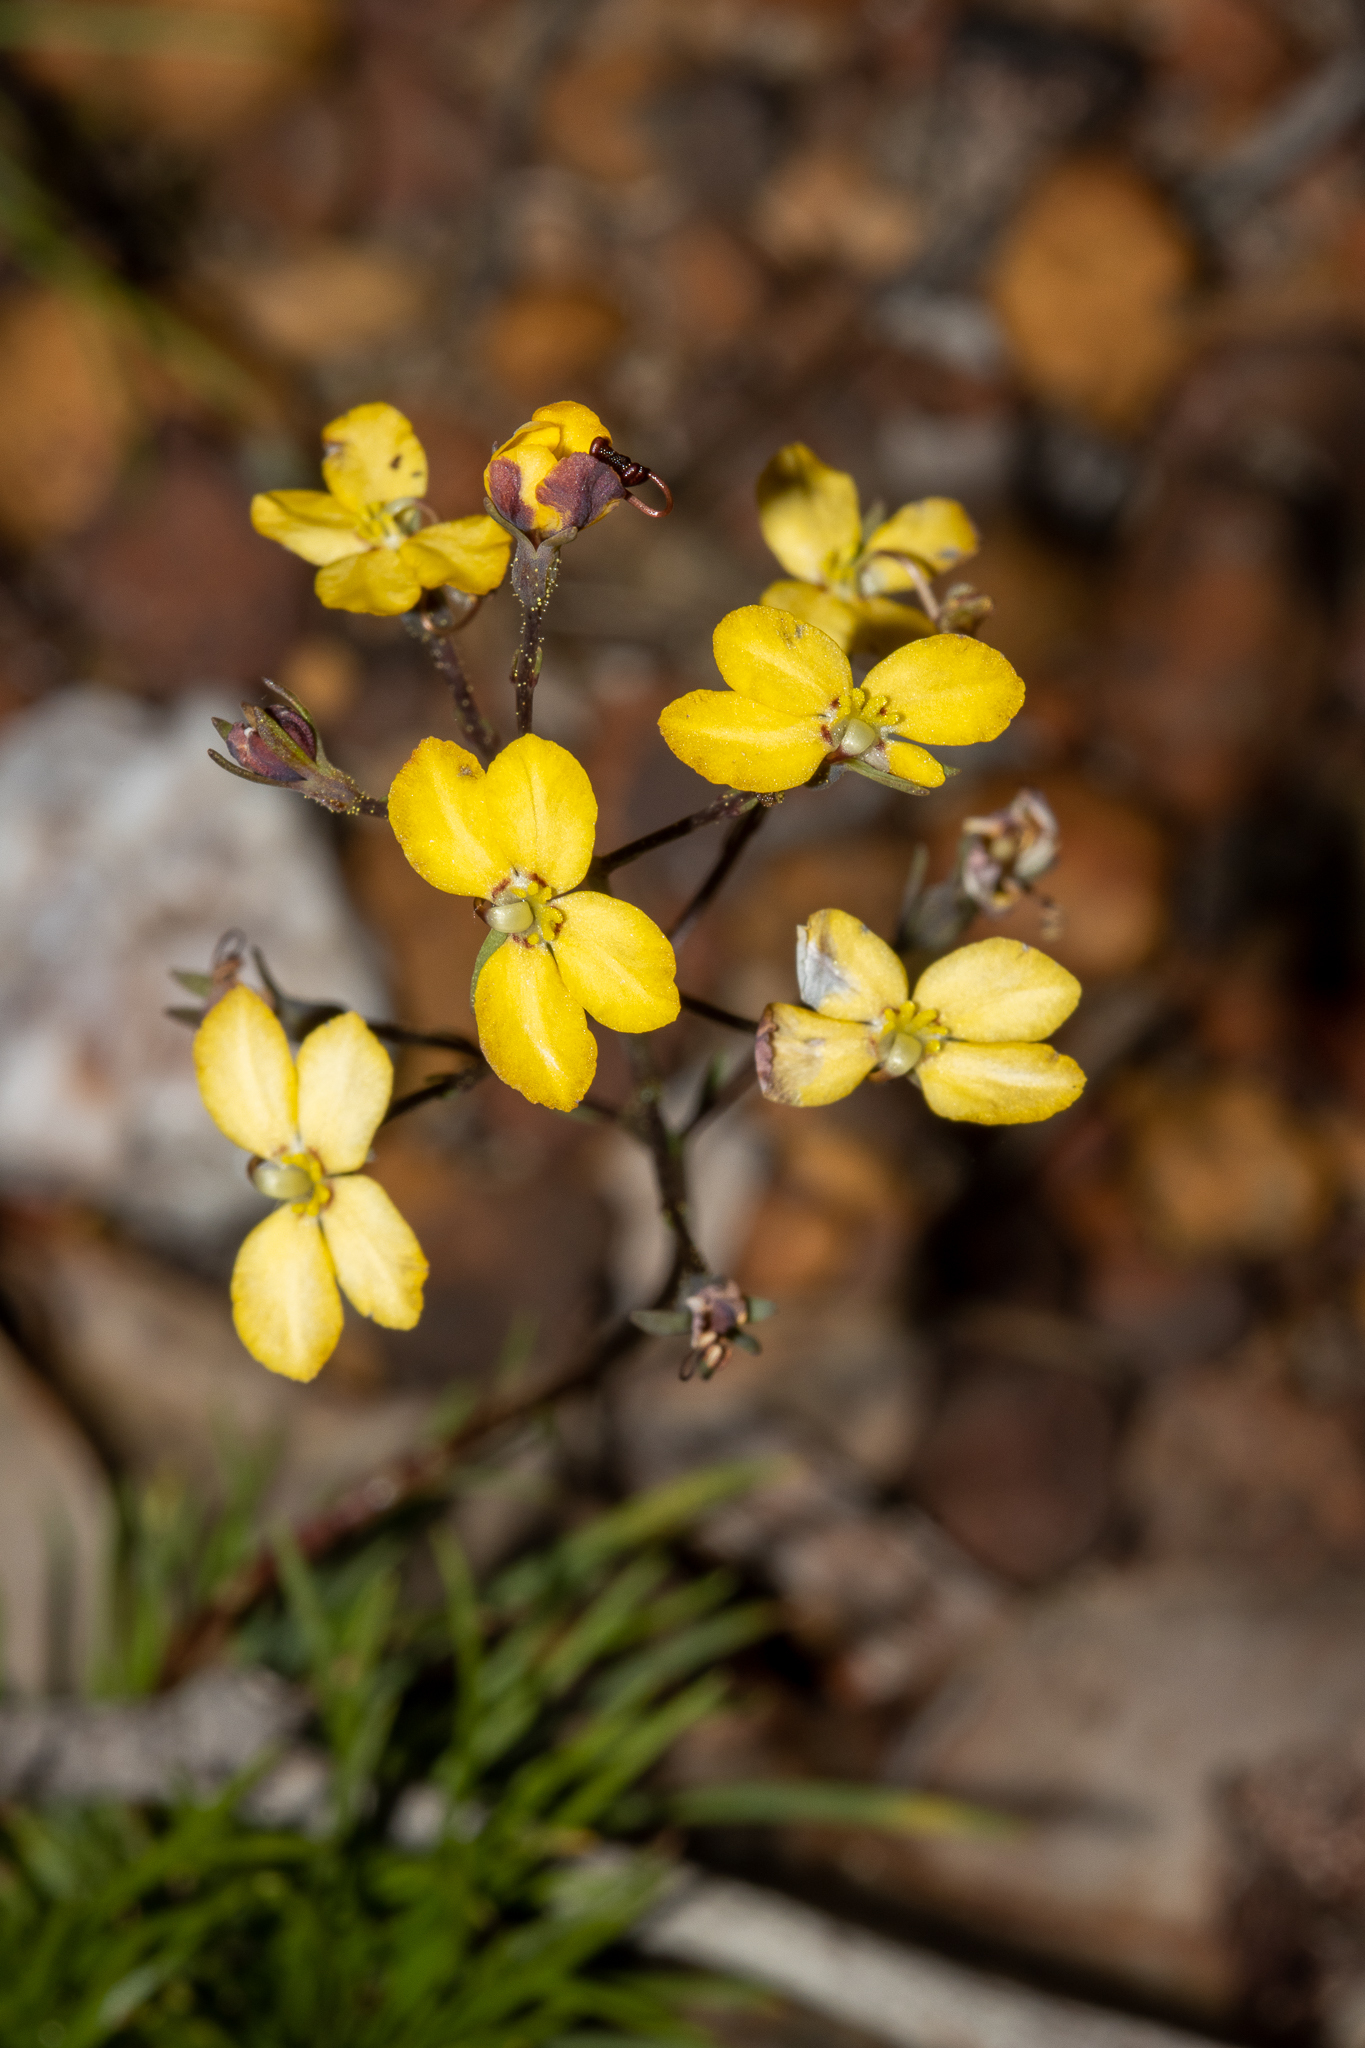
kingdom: Plantae
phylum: Tracheophyta
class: Magnoliopsida
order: Asterales
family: Stylidiaceae
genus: Stylidium
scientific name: Stylidium diuroides
